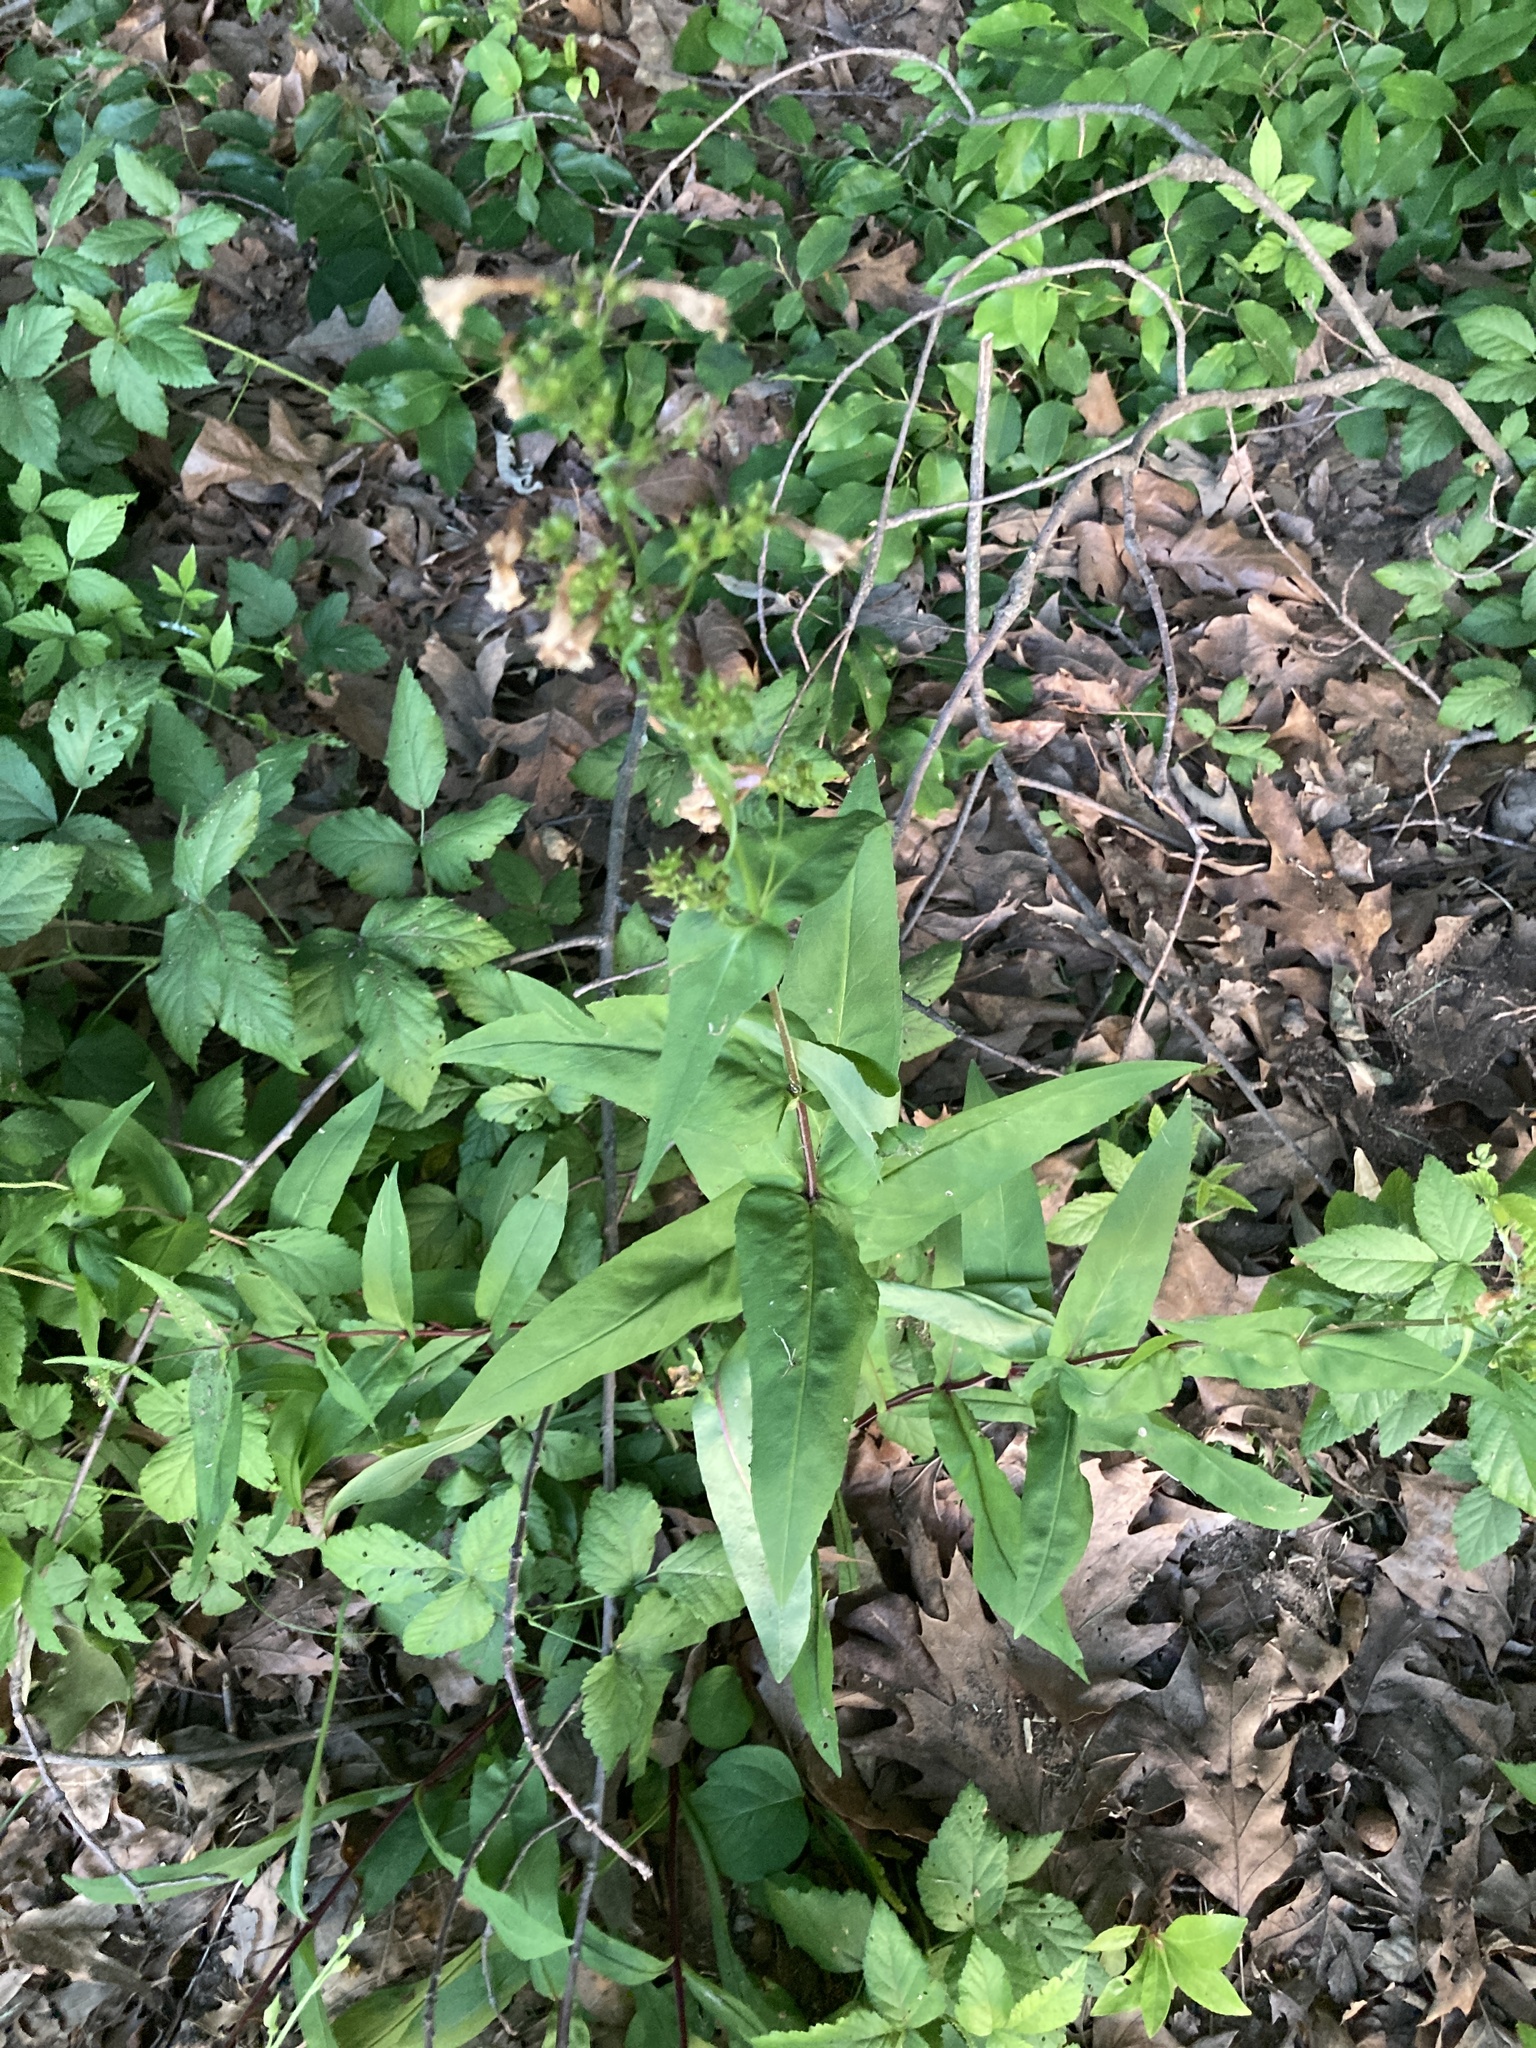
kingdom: Plantae
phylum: Tracheophyta
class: Magnoliopsida
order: Lamiales
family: Plantaginaceae
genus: Penstemon
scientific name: Penstemon digitalis
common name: Foxglove beardtongue
